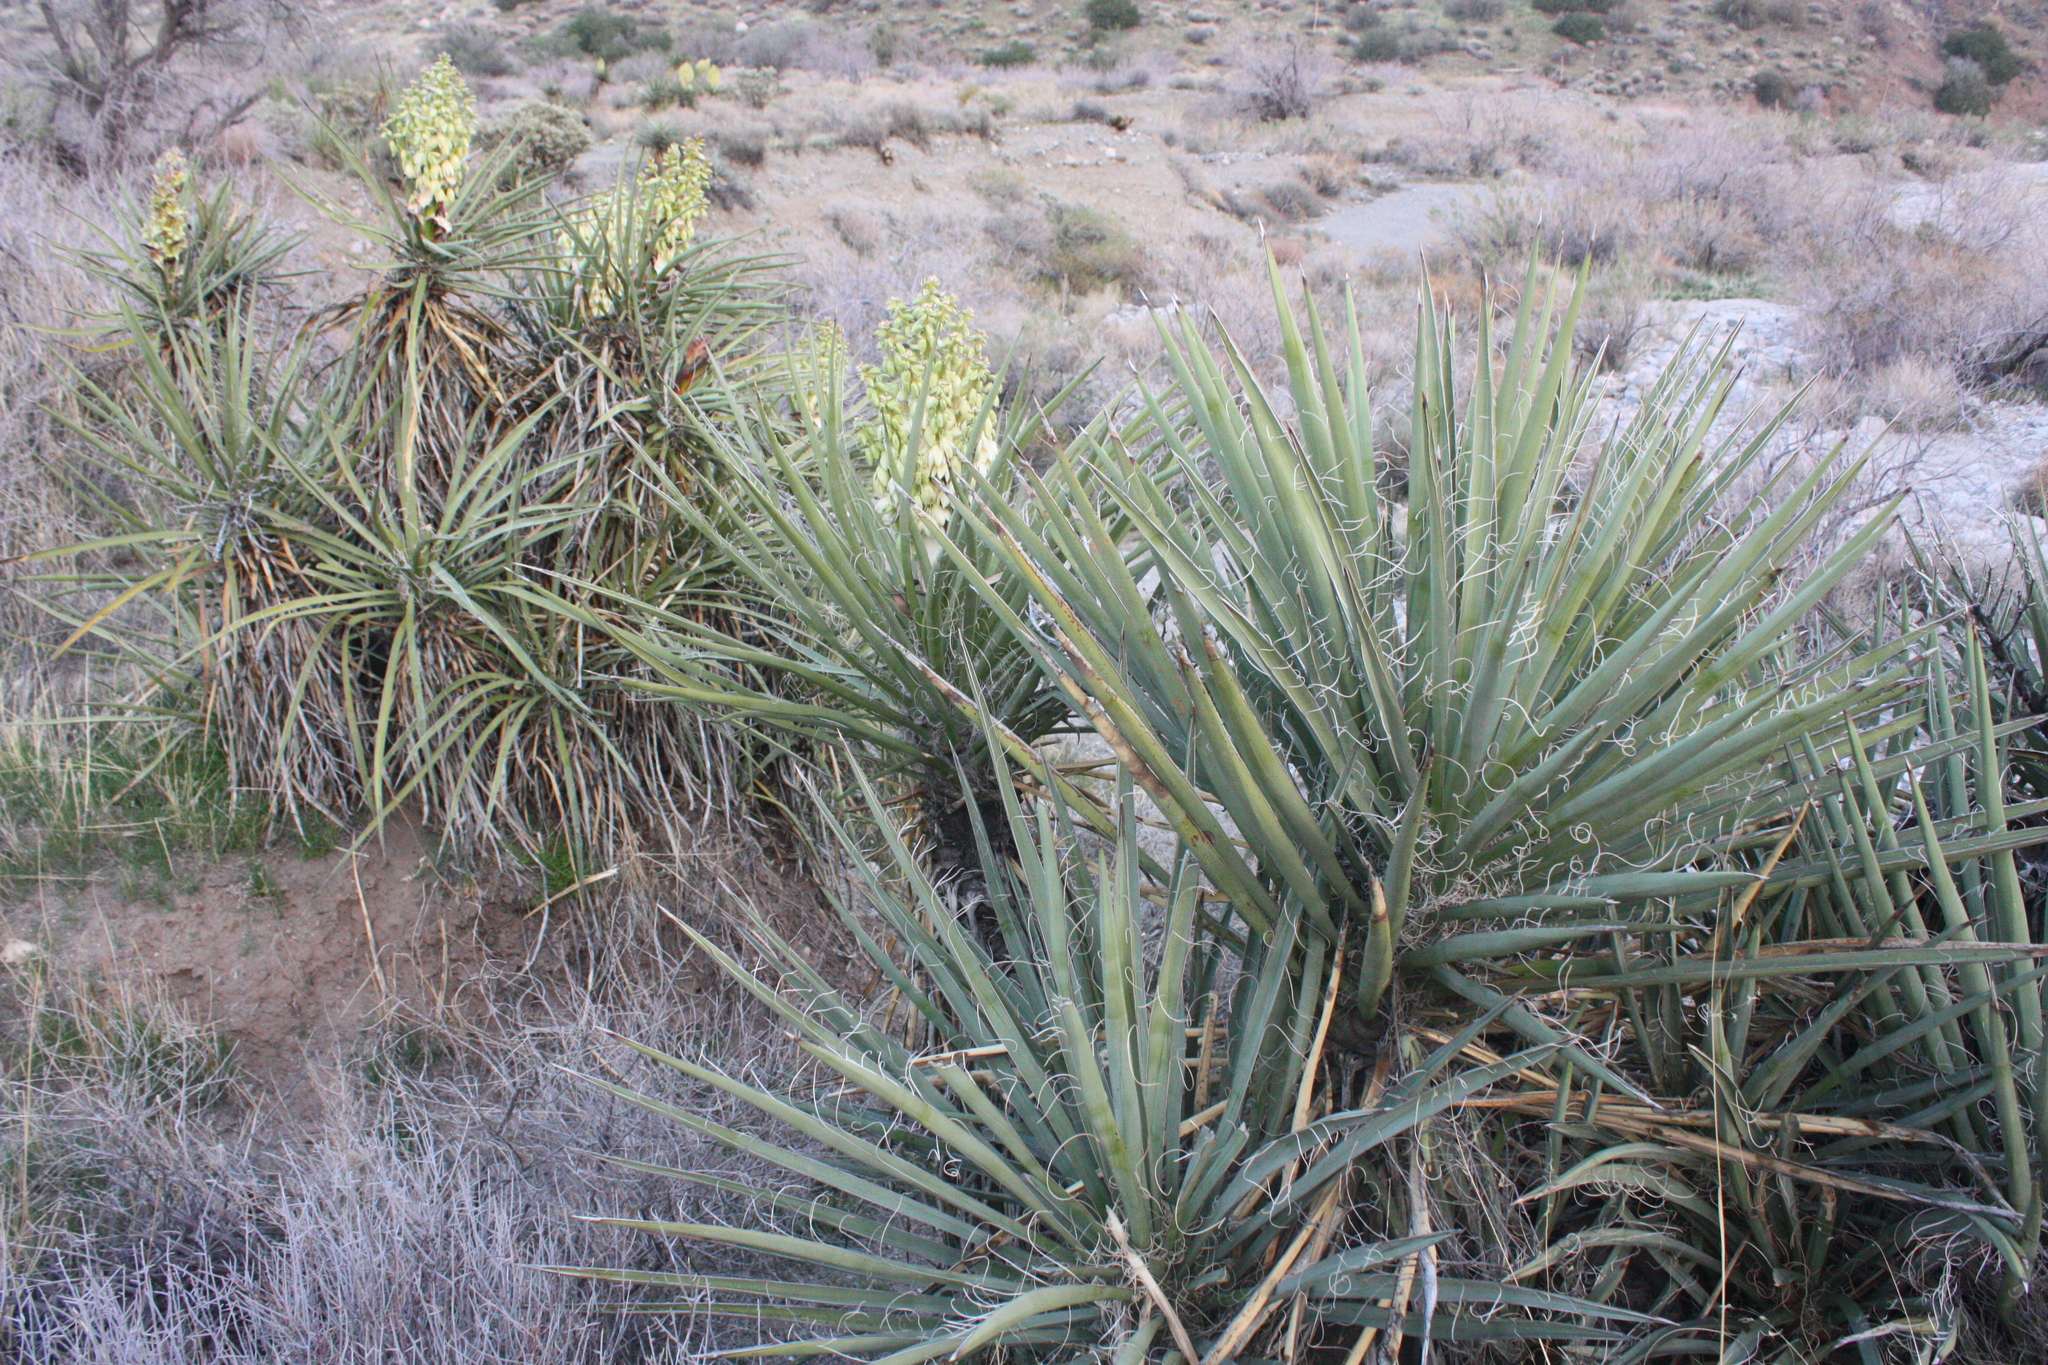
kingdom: Plantae
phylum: Tracheophyta
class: Liliopsida
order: Asparagales
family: Asparagaceae
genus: Yucca
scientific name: Yucca schidigera
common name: Mojave yucca
